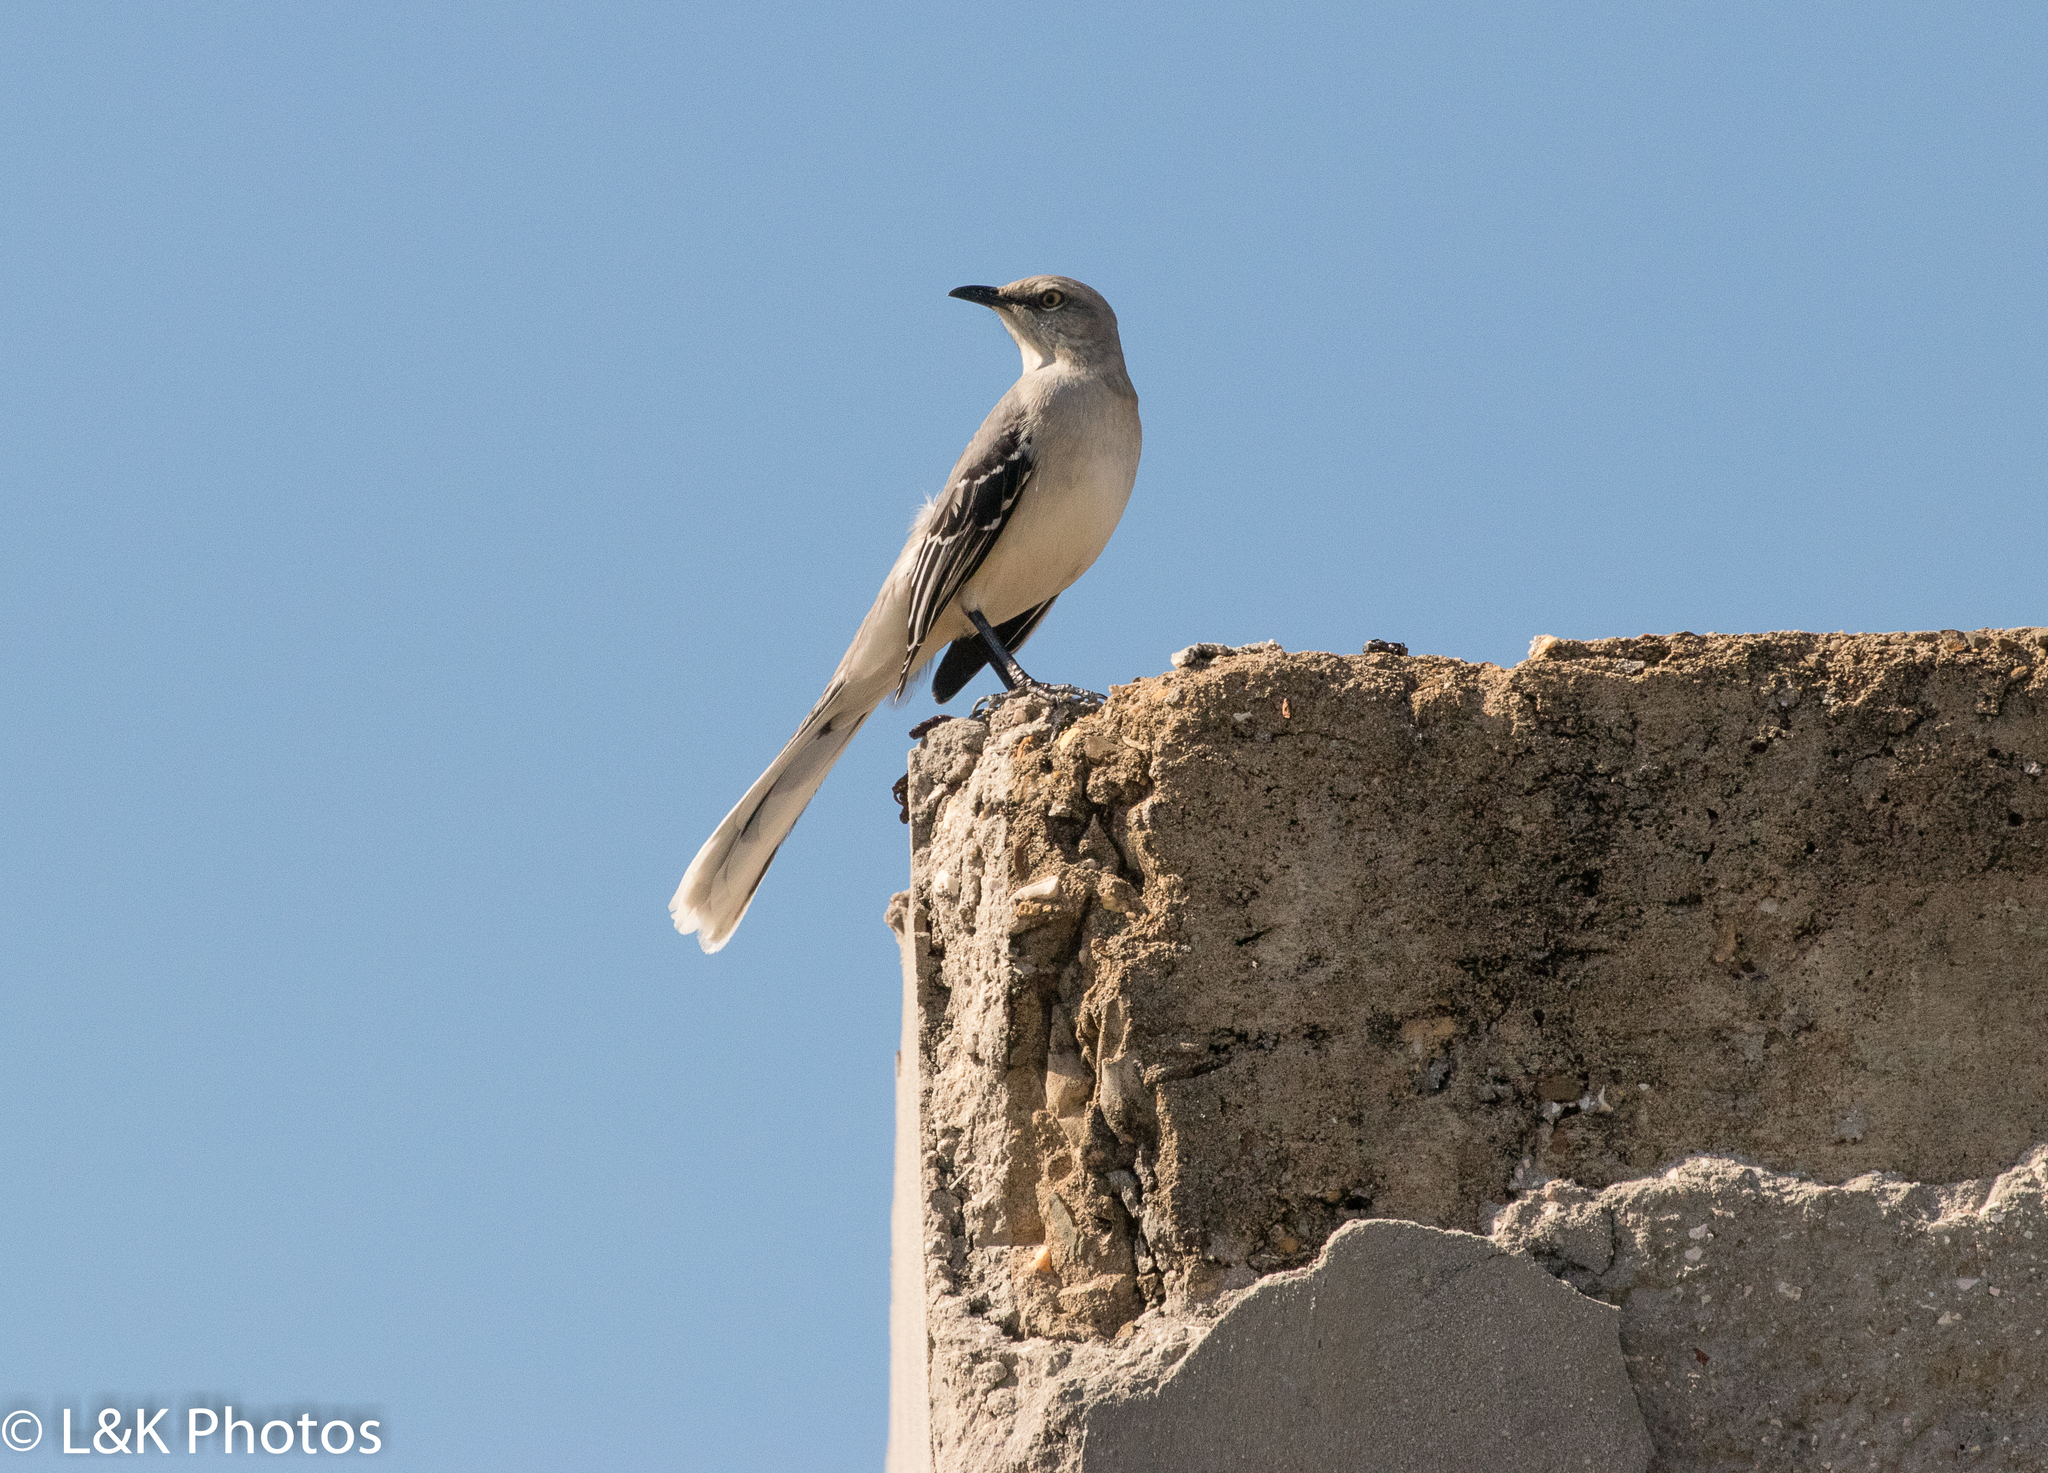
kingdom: Animalia
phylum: Chordata
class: Aves
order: Passeriformes
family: Mimidae
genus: Mimus
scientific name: Mimus gilvus
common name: Tropical mockingbird
